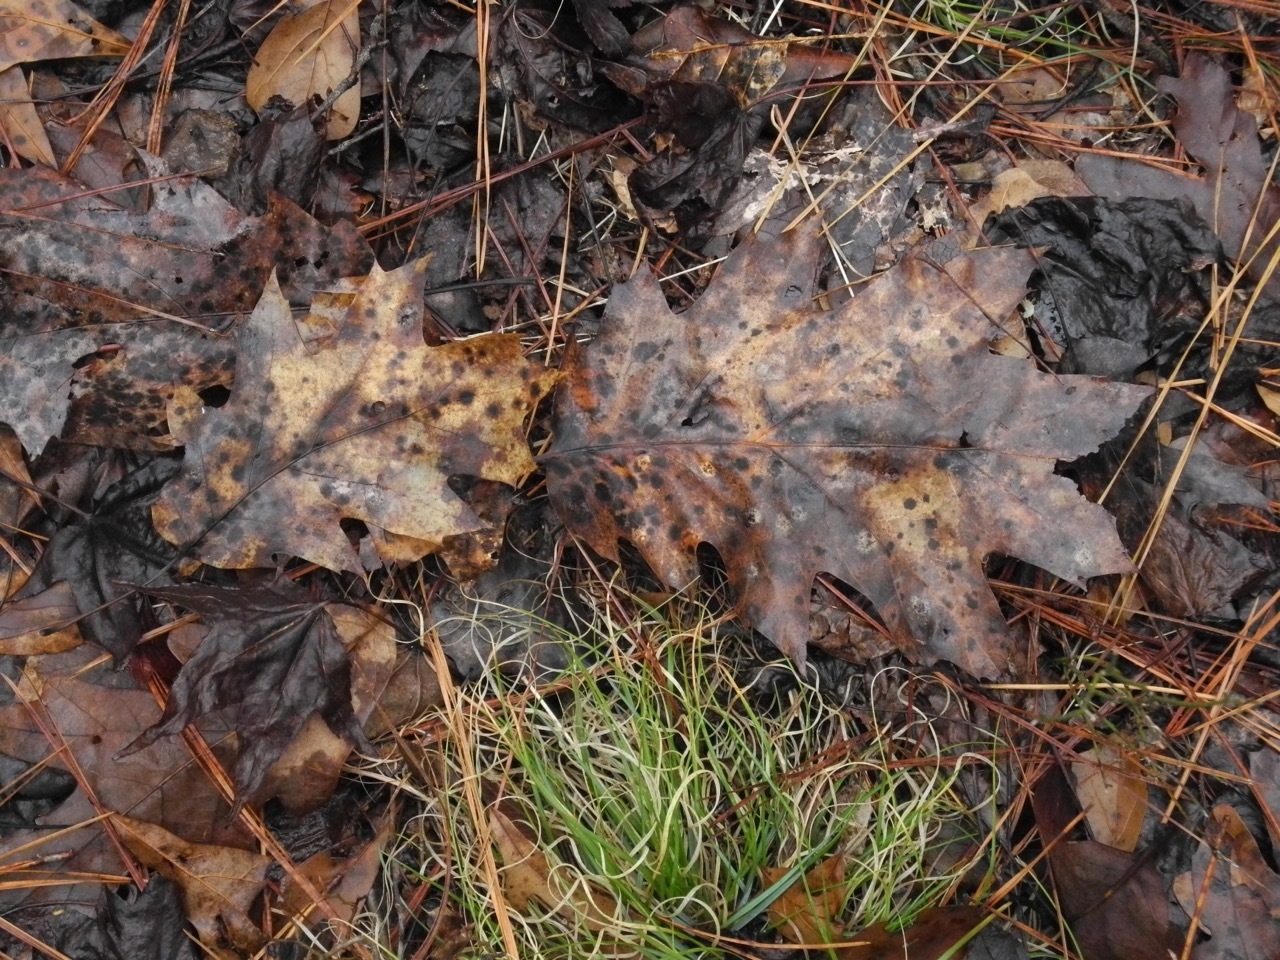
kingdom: Plantae
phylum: Tracheophyta
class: Magnoliopsida
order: Fagales
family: Fagaceae
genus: Quercus
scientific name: Quercus rubra
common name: Red oak
